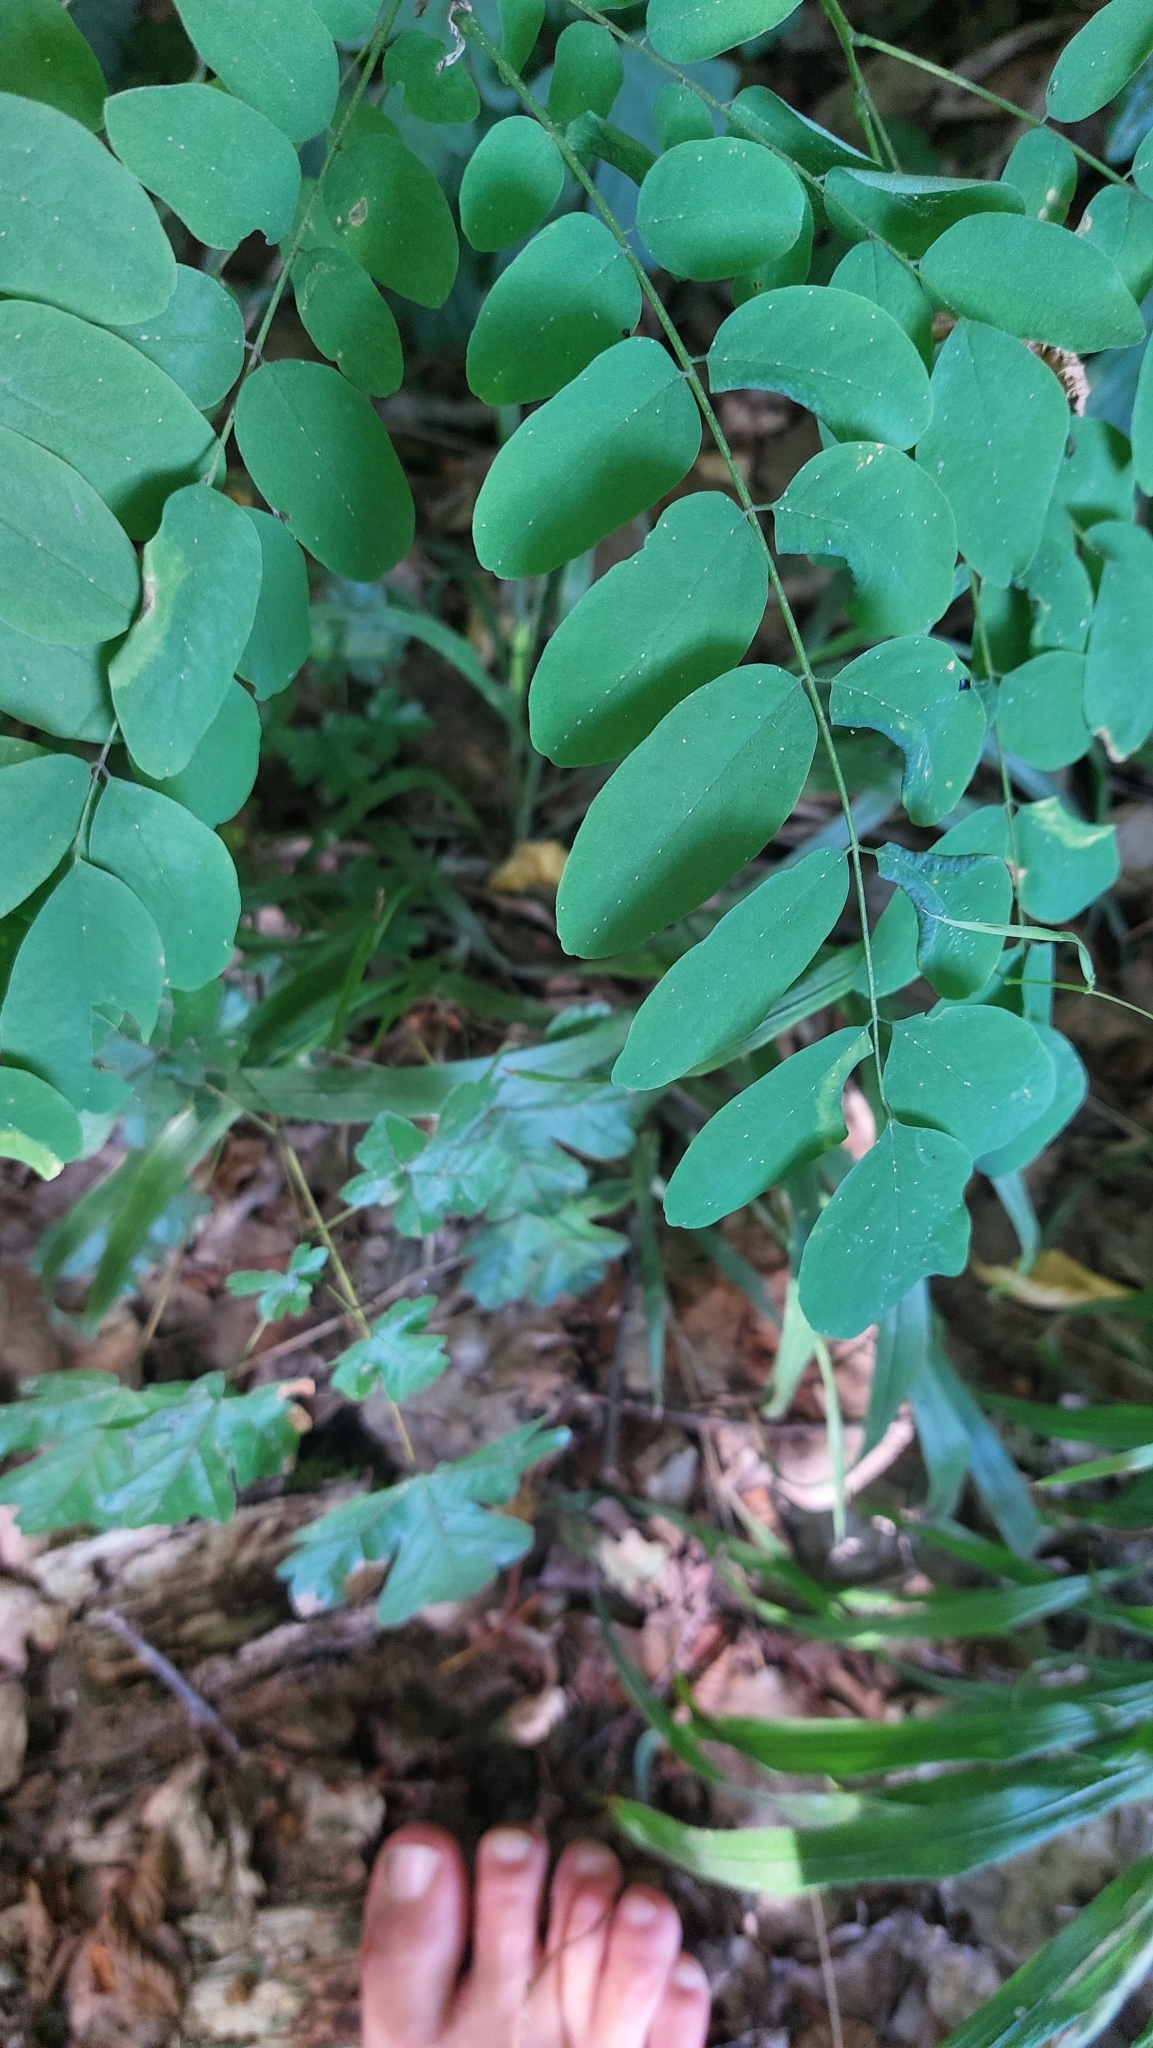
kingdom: Plantae
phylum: Tracheophyta
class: Magnoliopsida
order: Fabales
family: Fabaceae
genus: Robinia
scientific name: Robinia pseudoacacia
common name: Black locust
